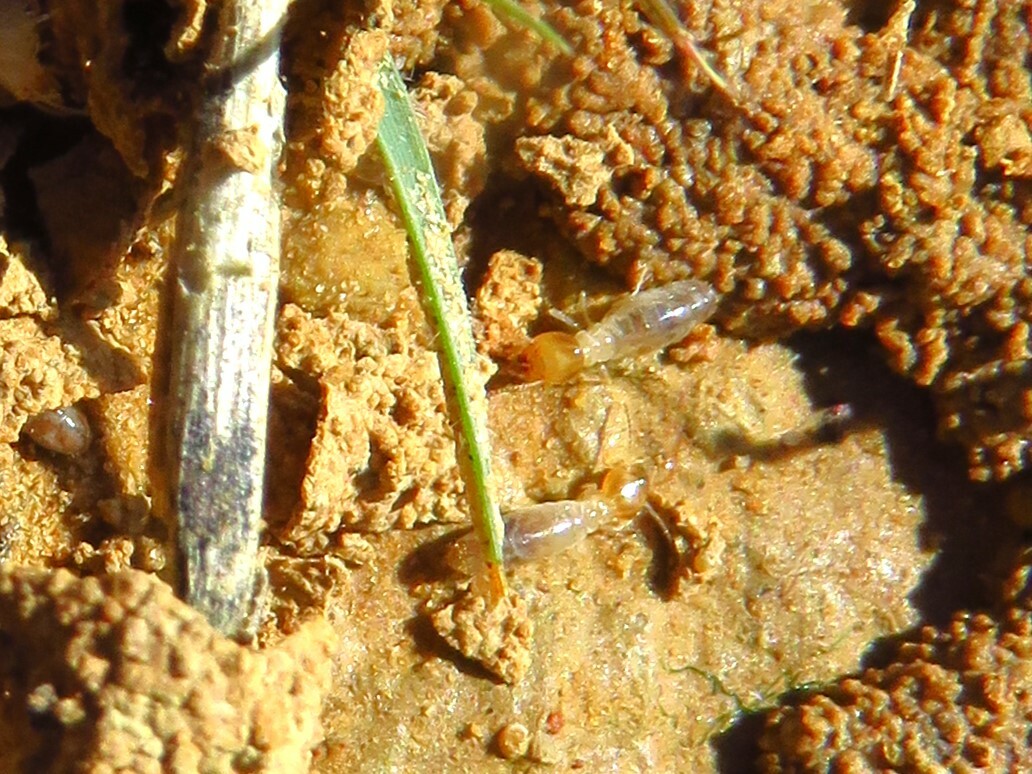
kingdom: Animalia
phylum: Arthropoda
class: Insecta
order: Blattodea
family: Termitidae
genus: Gnathamitermes
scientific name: Gnathamitermes
